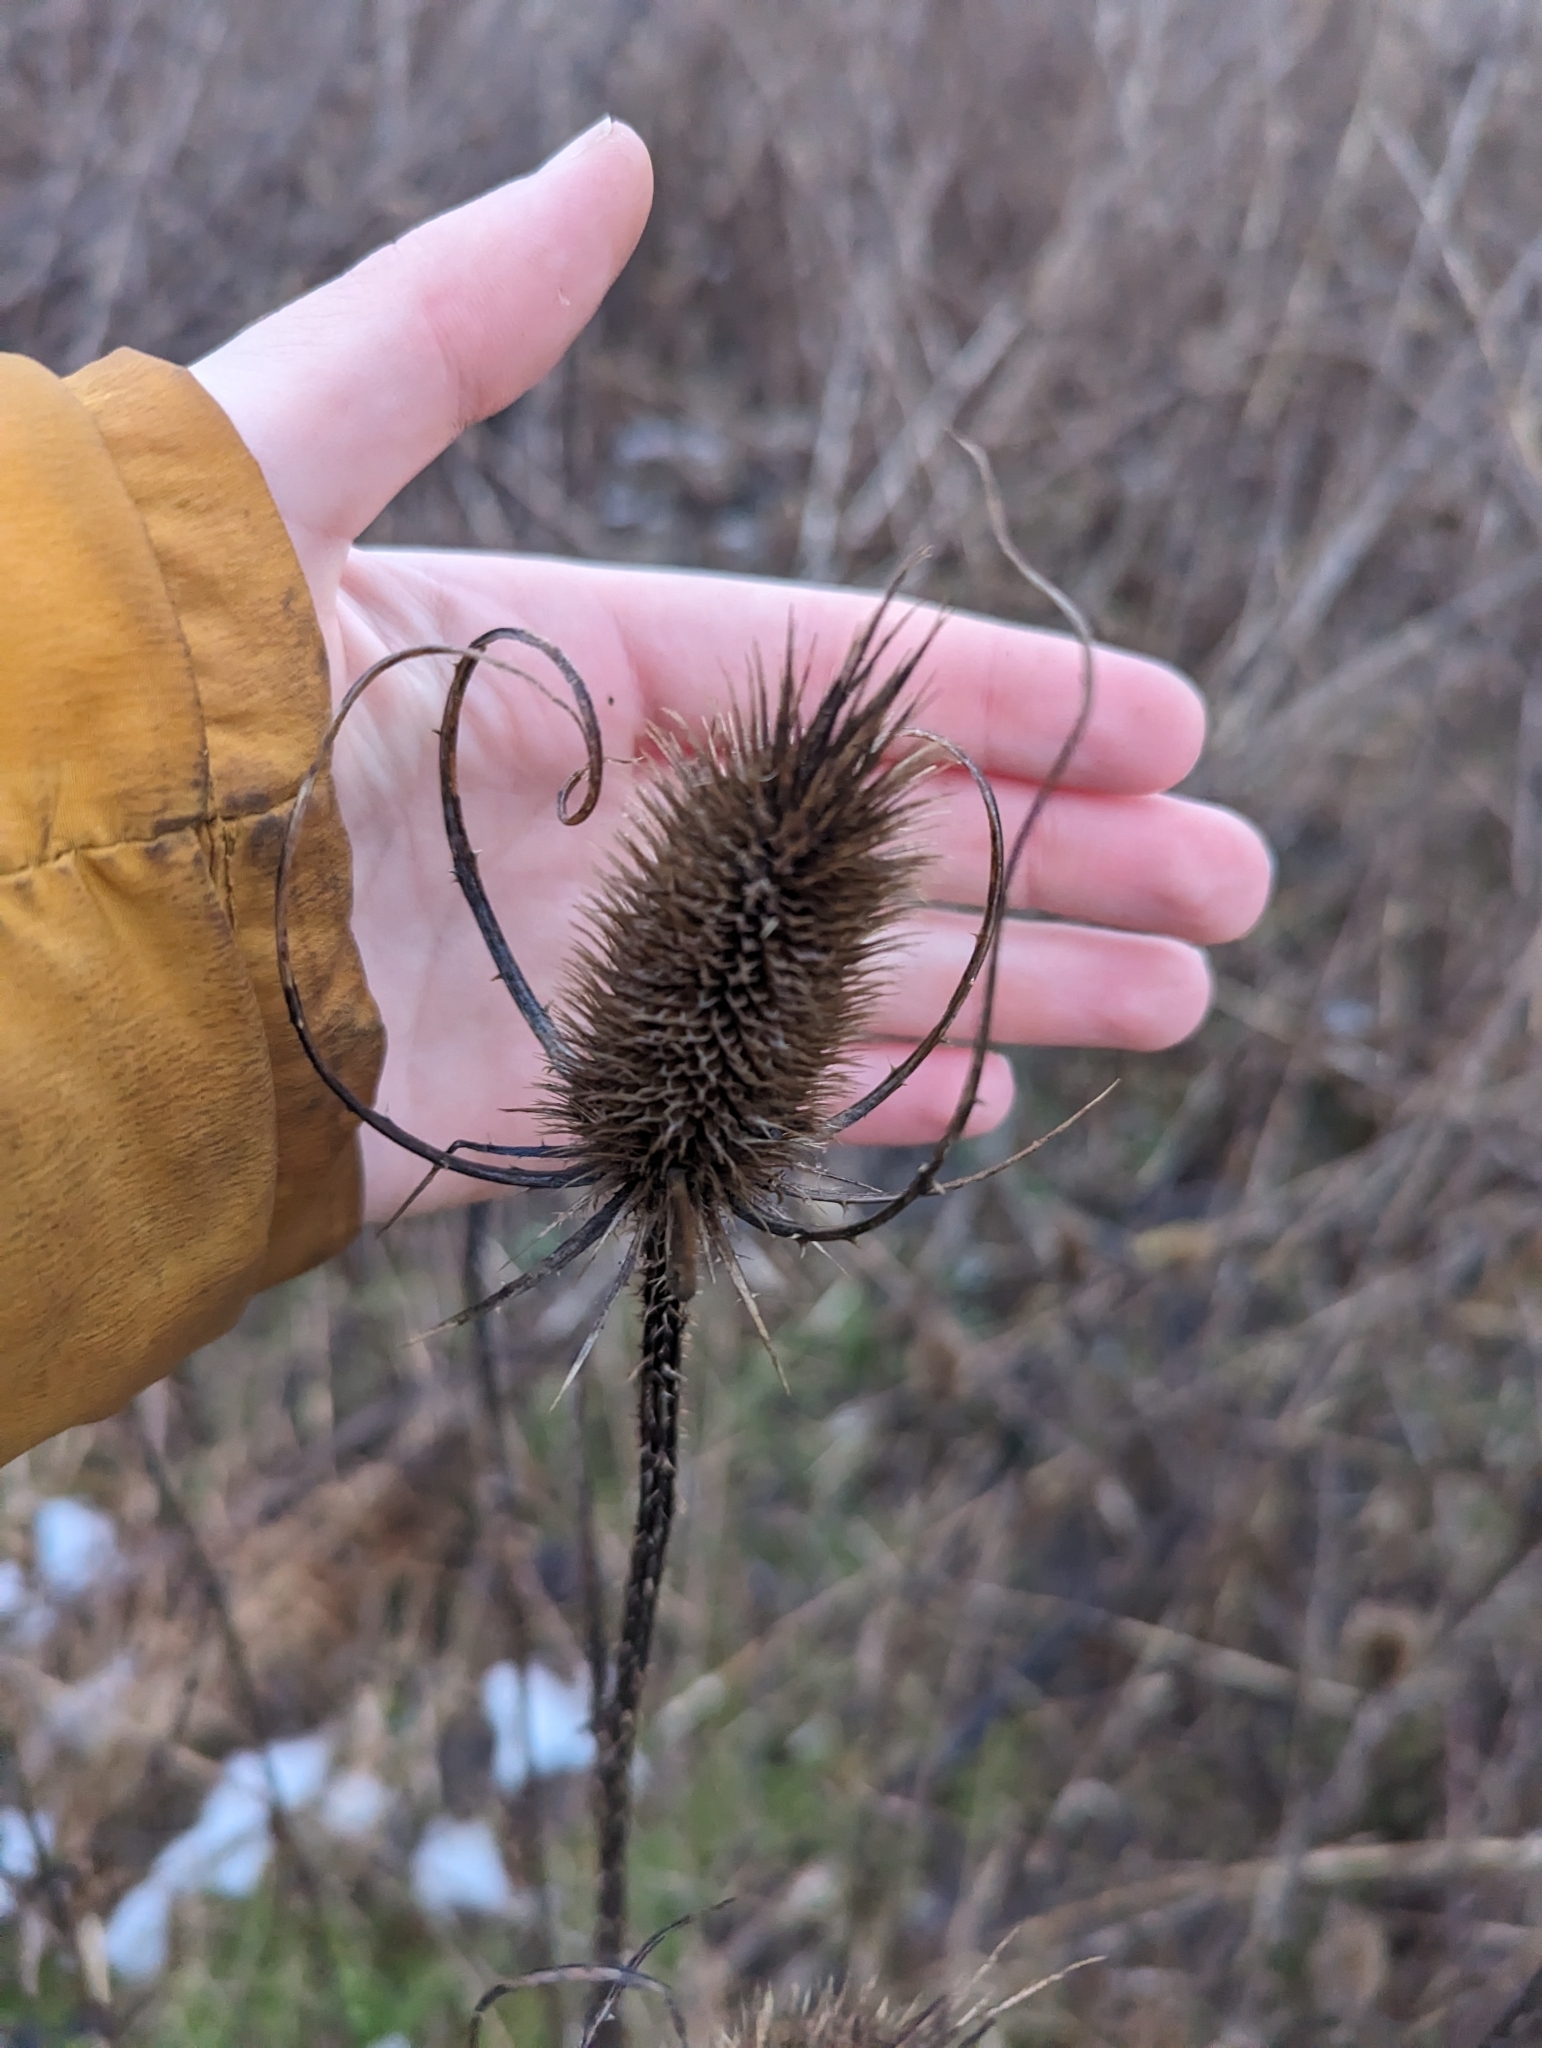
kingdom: Plantae
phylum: Tracheophyta
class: Magnoliopsida
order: Dipsacales
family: Caprifoliaceae
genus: Dipsacus
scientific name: Dipsacus fullonum
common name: Teasel
